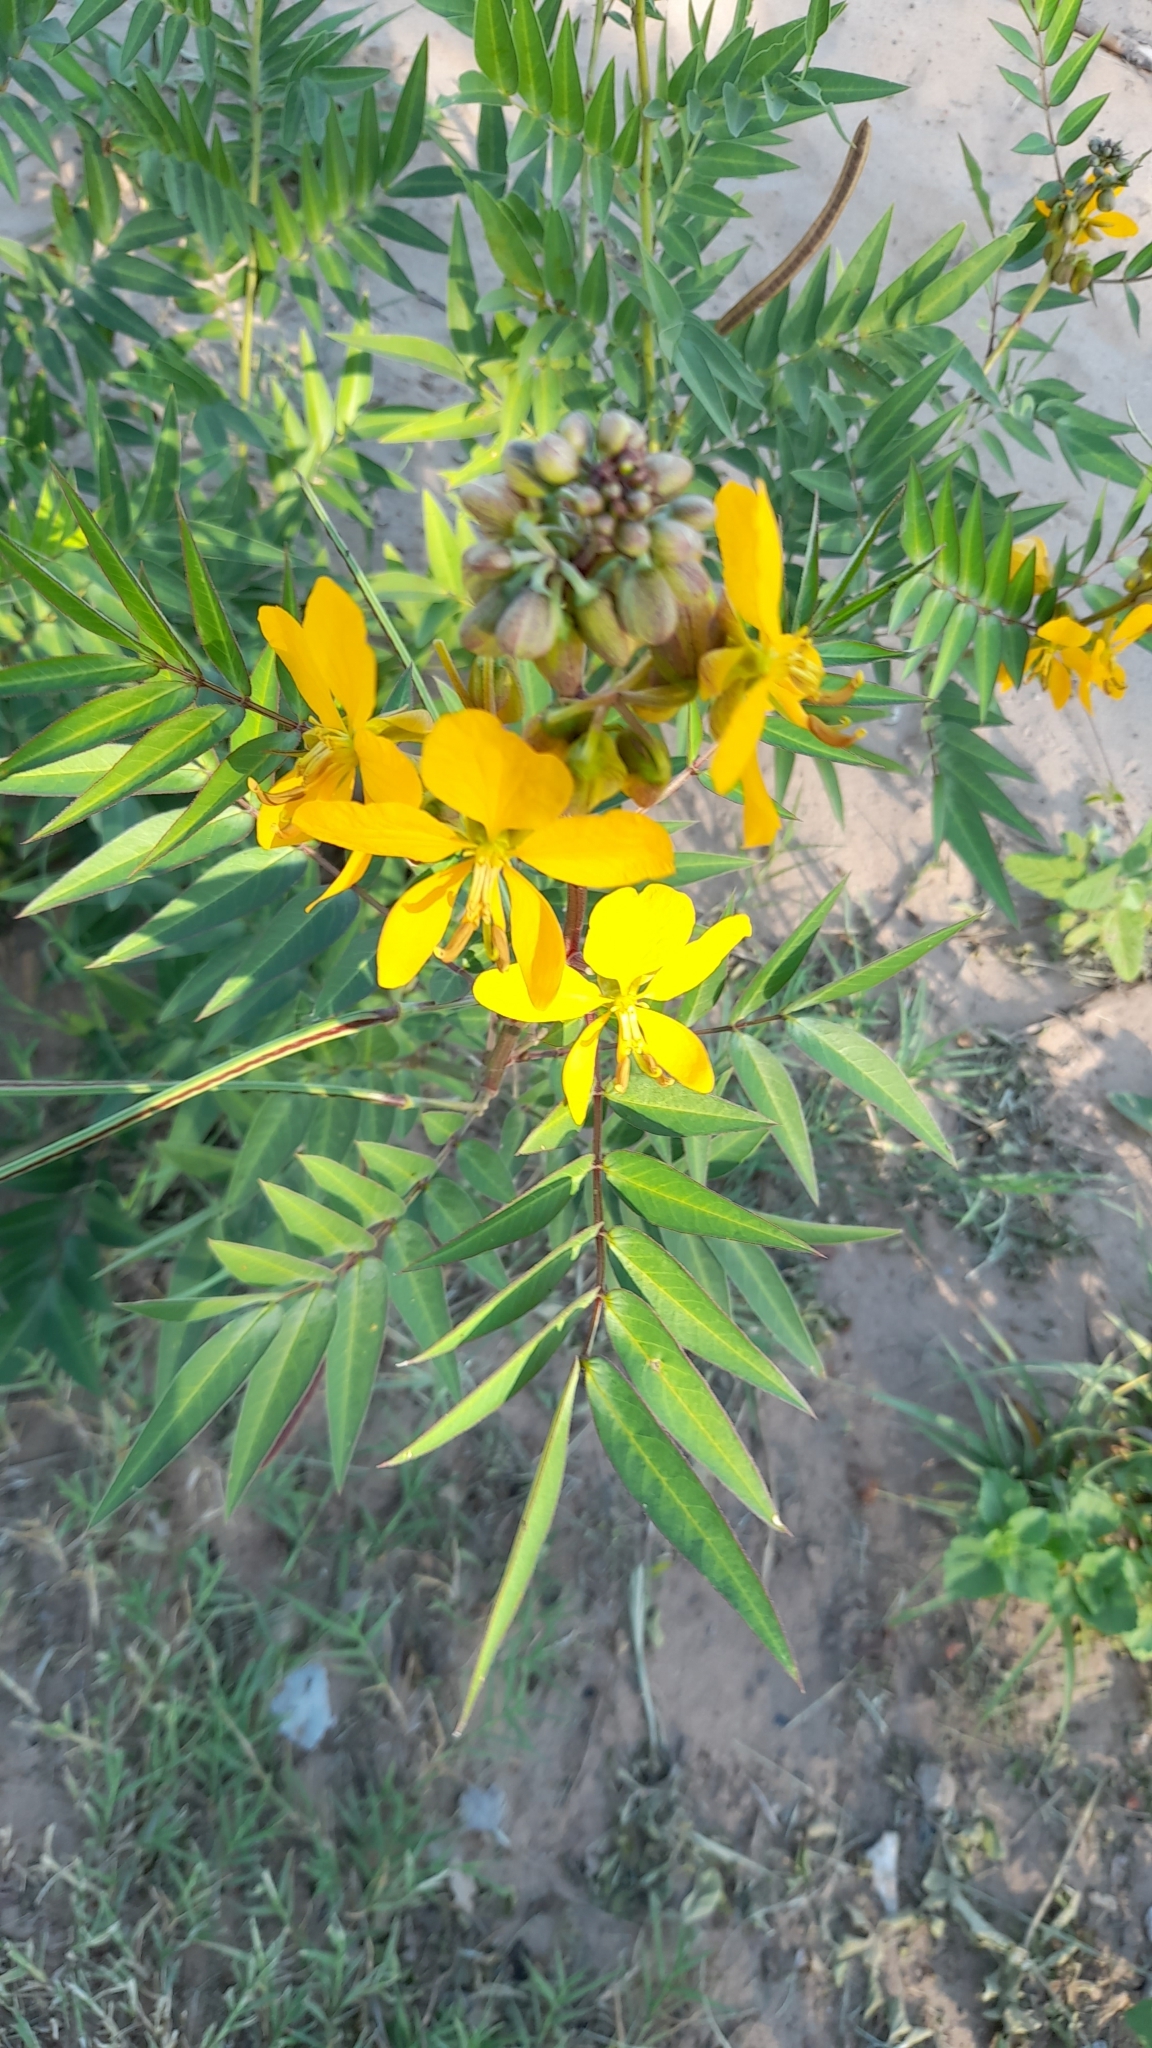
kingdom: Plantae
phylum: Tracheophyta
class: Magnoliopsida
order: Fabales
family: Fabaceae
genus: Senna
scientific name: Senna scabriuscula
